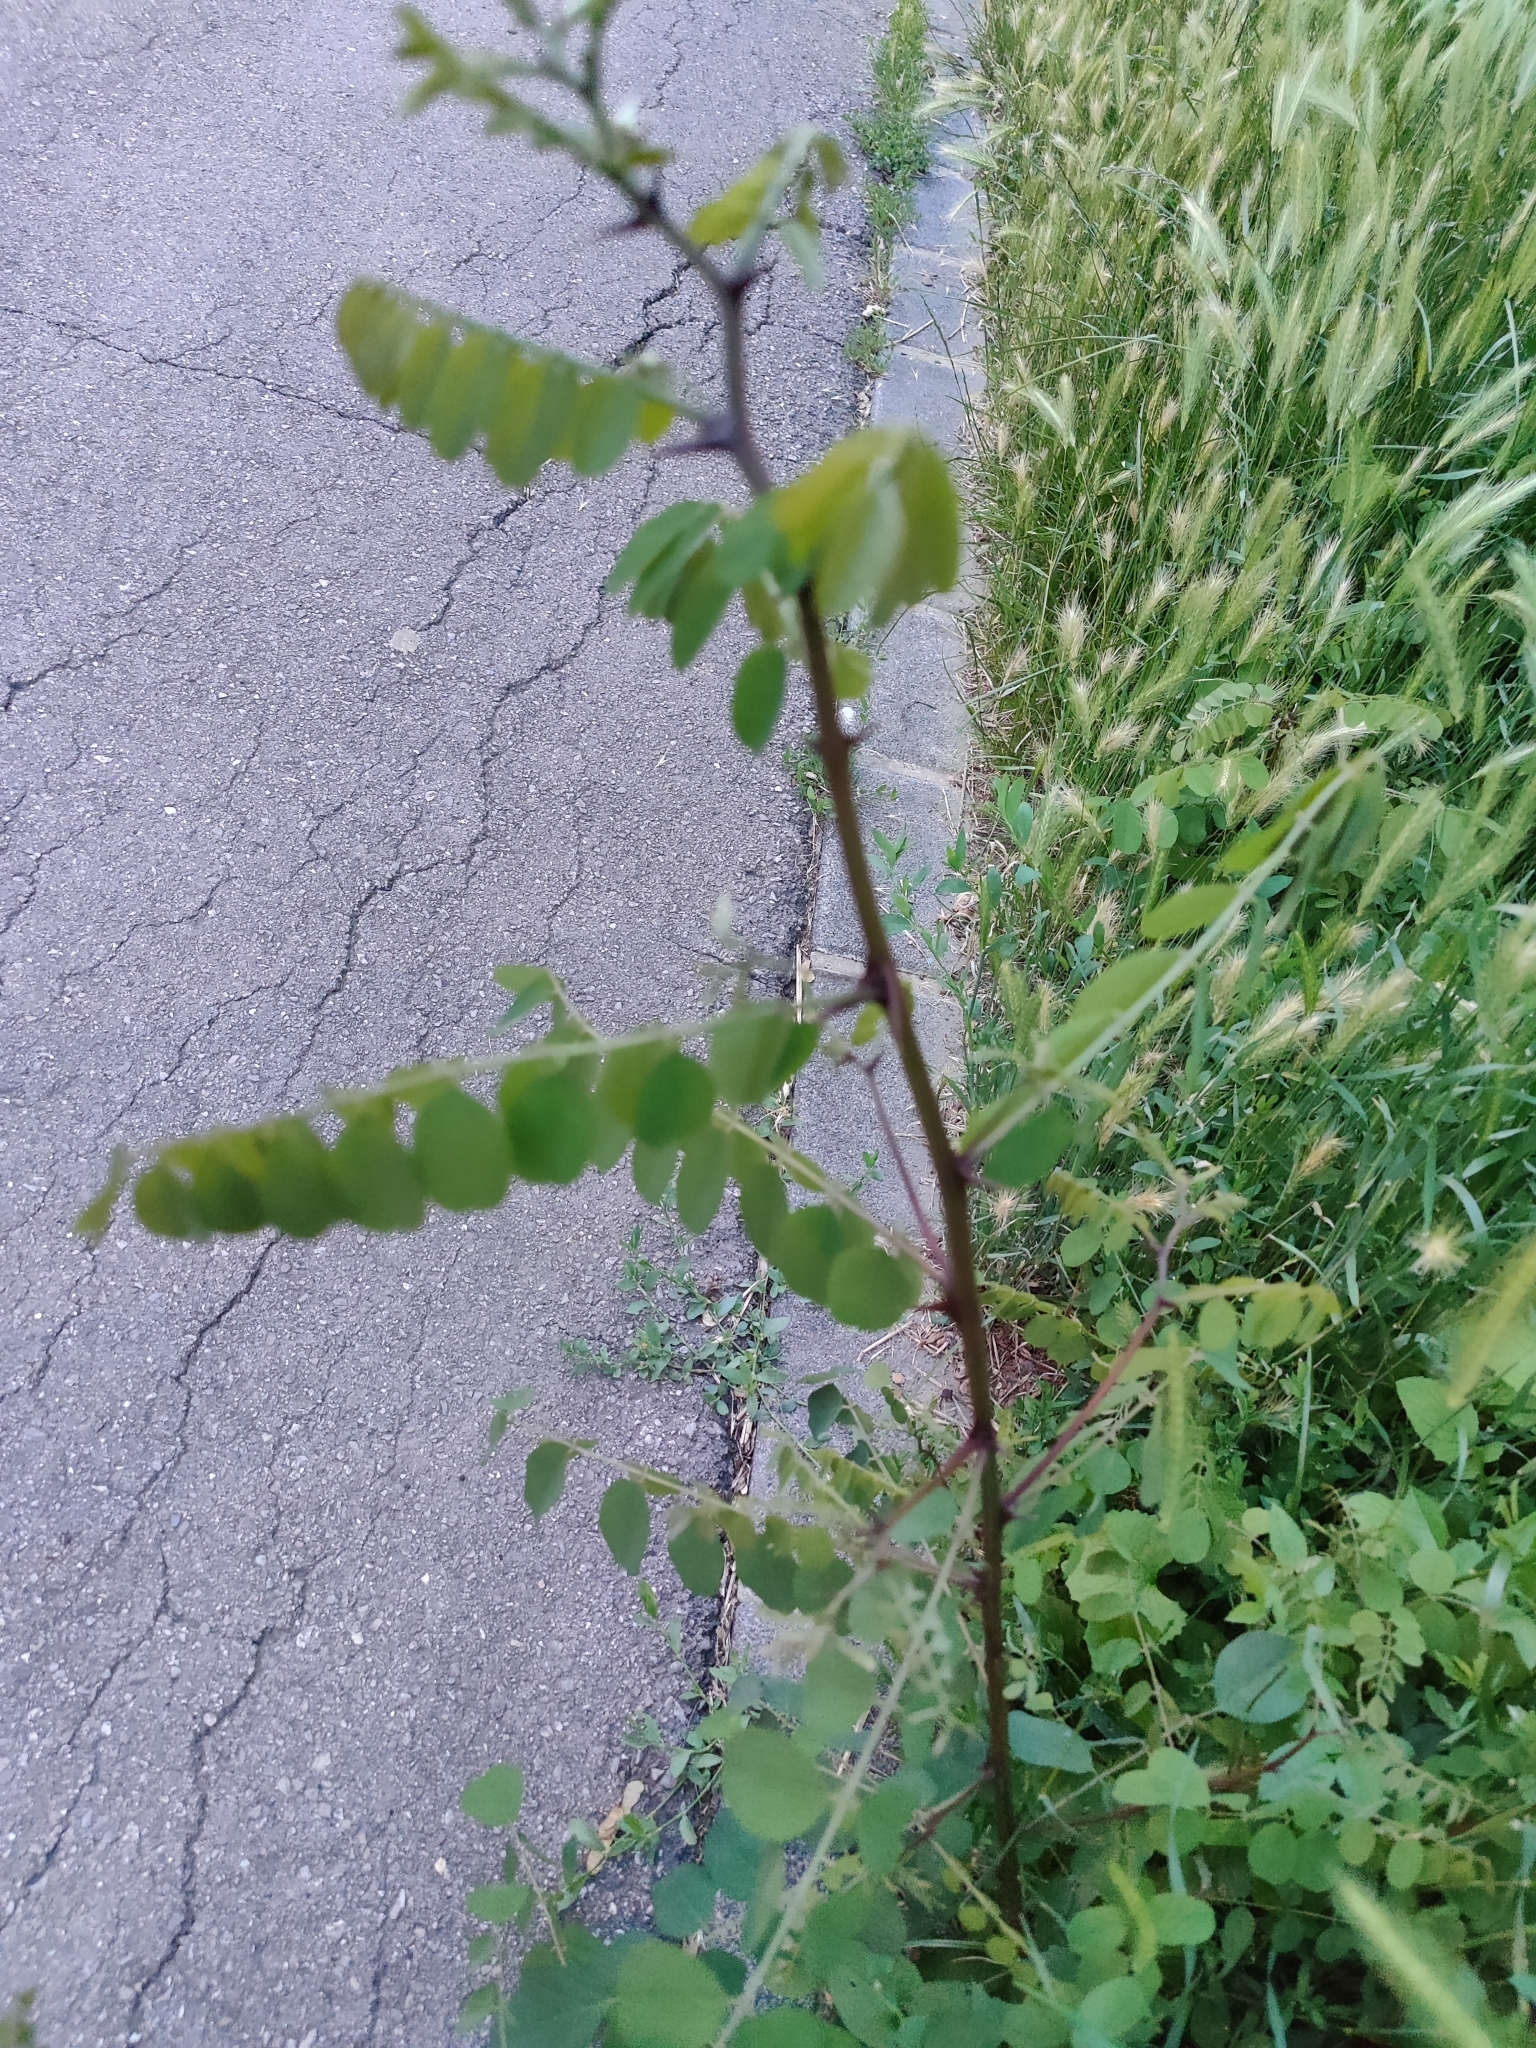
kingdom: Plantae
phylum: Tracheophyta
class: Magnoliopsida
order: Fabales
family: Fabaceae
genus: Robinia
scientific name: Robinia pseudoacacia
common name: Black locust
